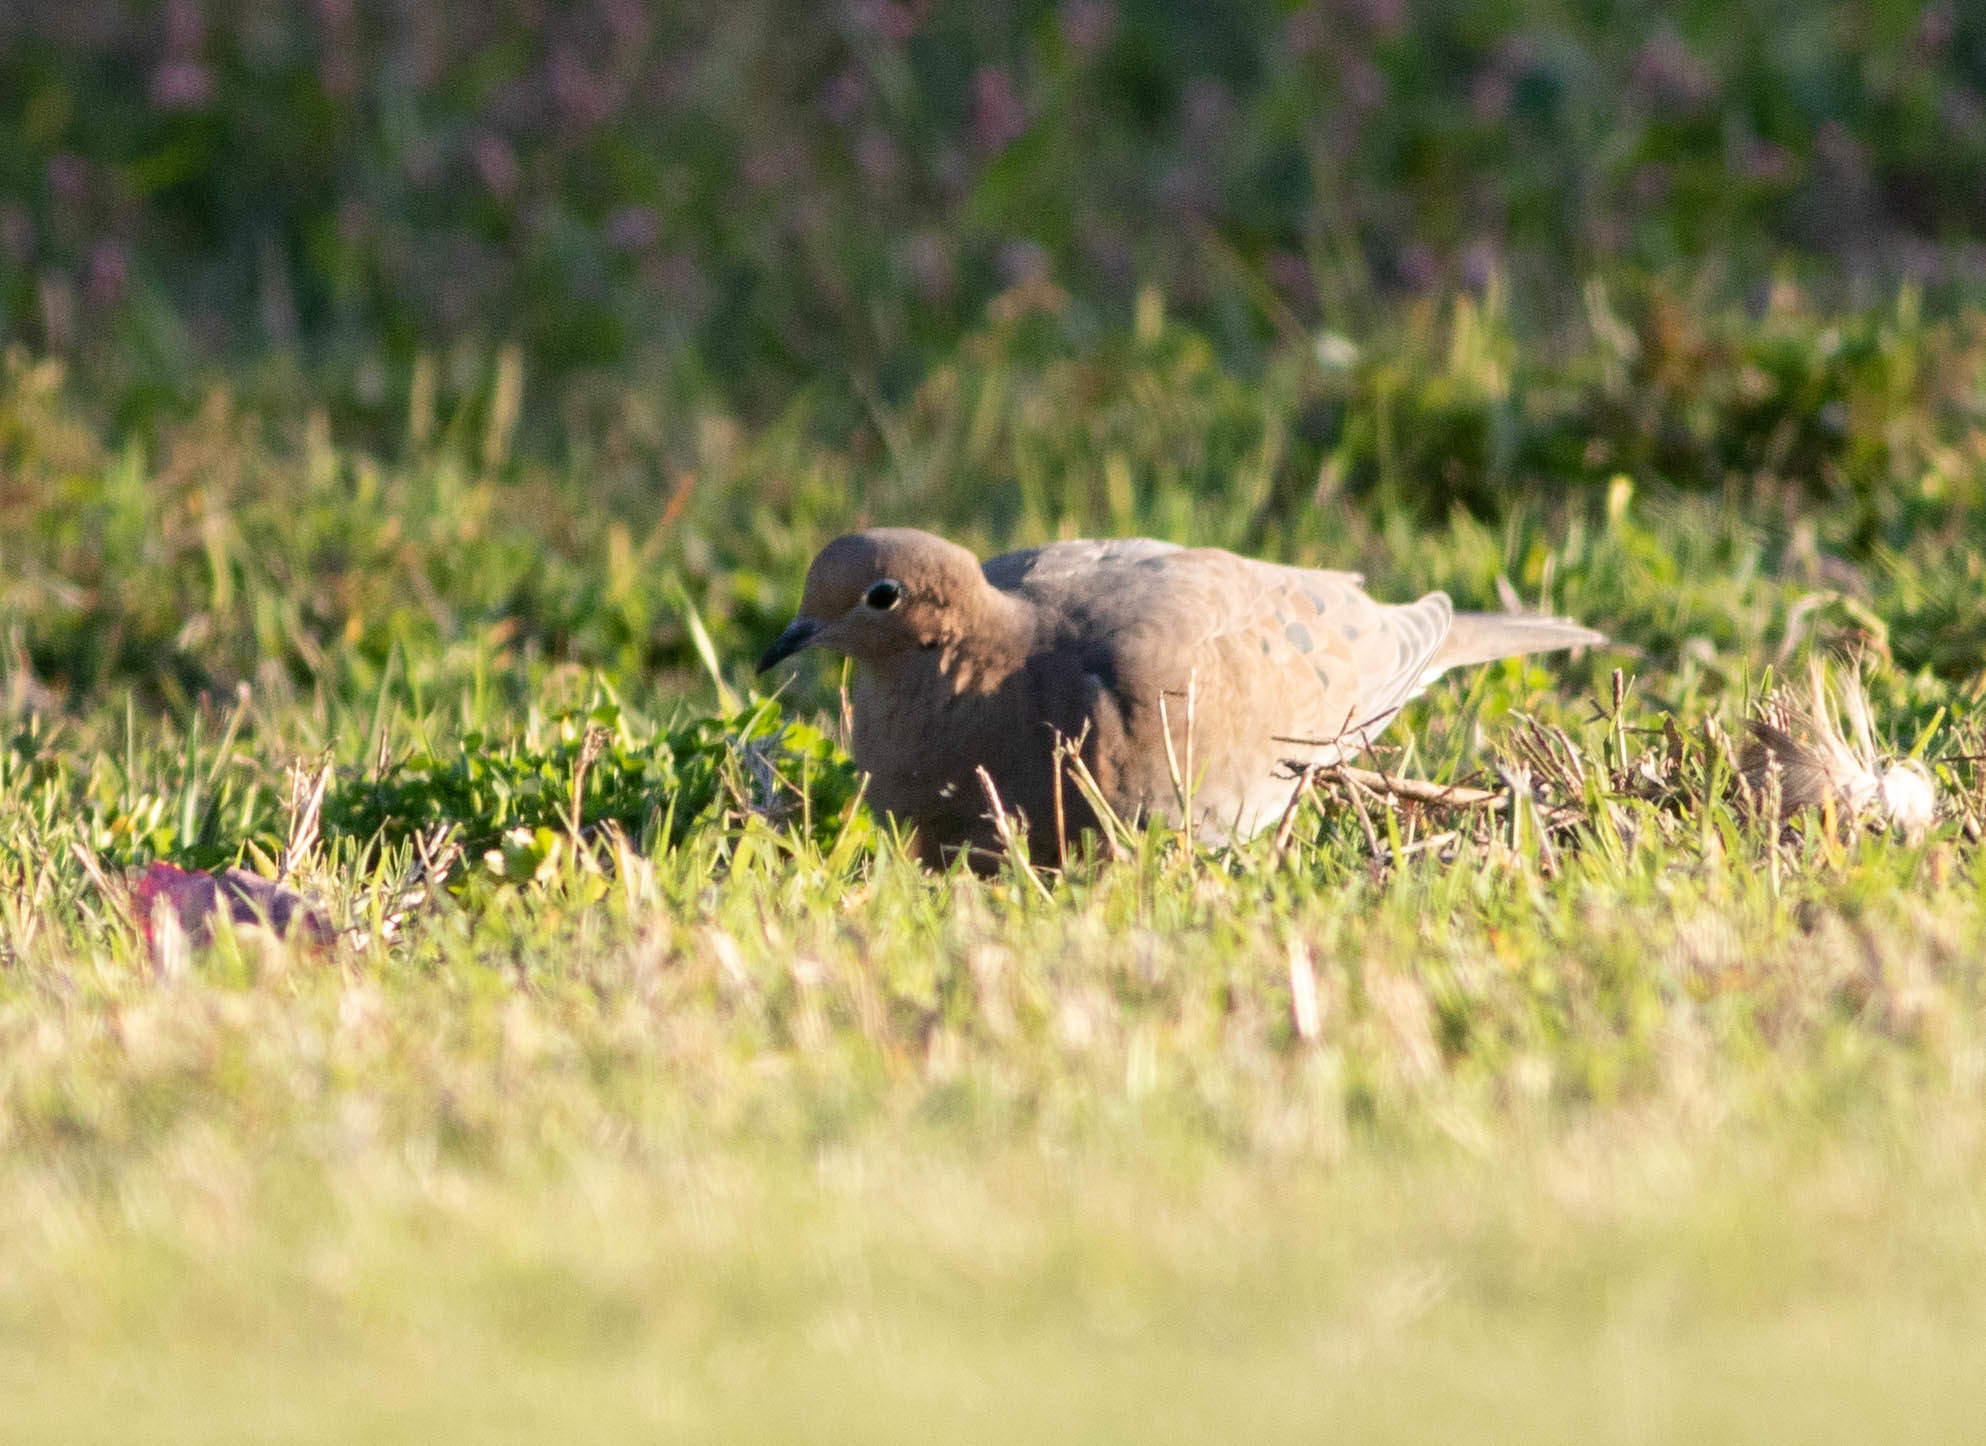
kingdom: Animalia
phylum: Chordata
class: Aves
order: Columbiformes
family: Columbidae
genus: Zenaida
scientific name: Zenaida macroura
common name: Mourning dove
